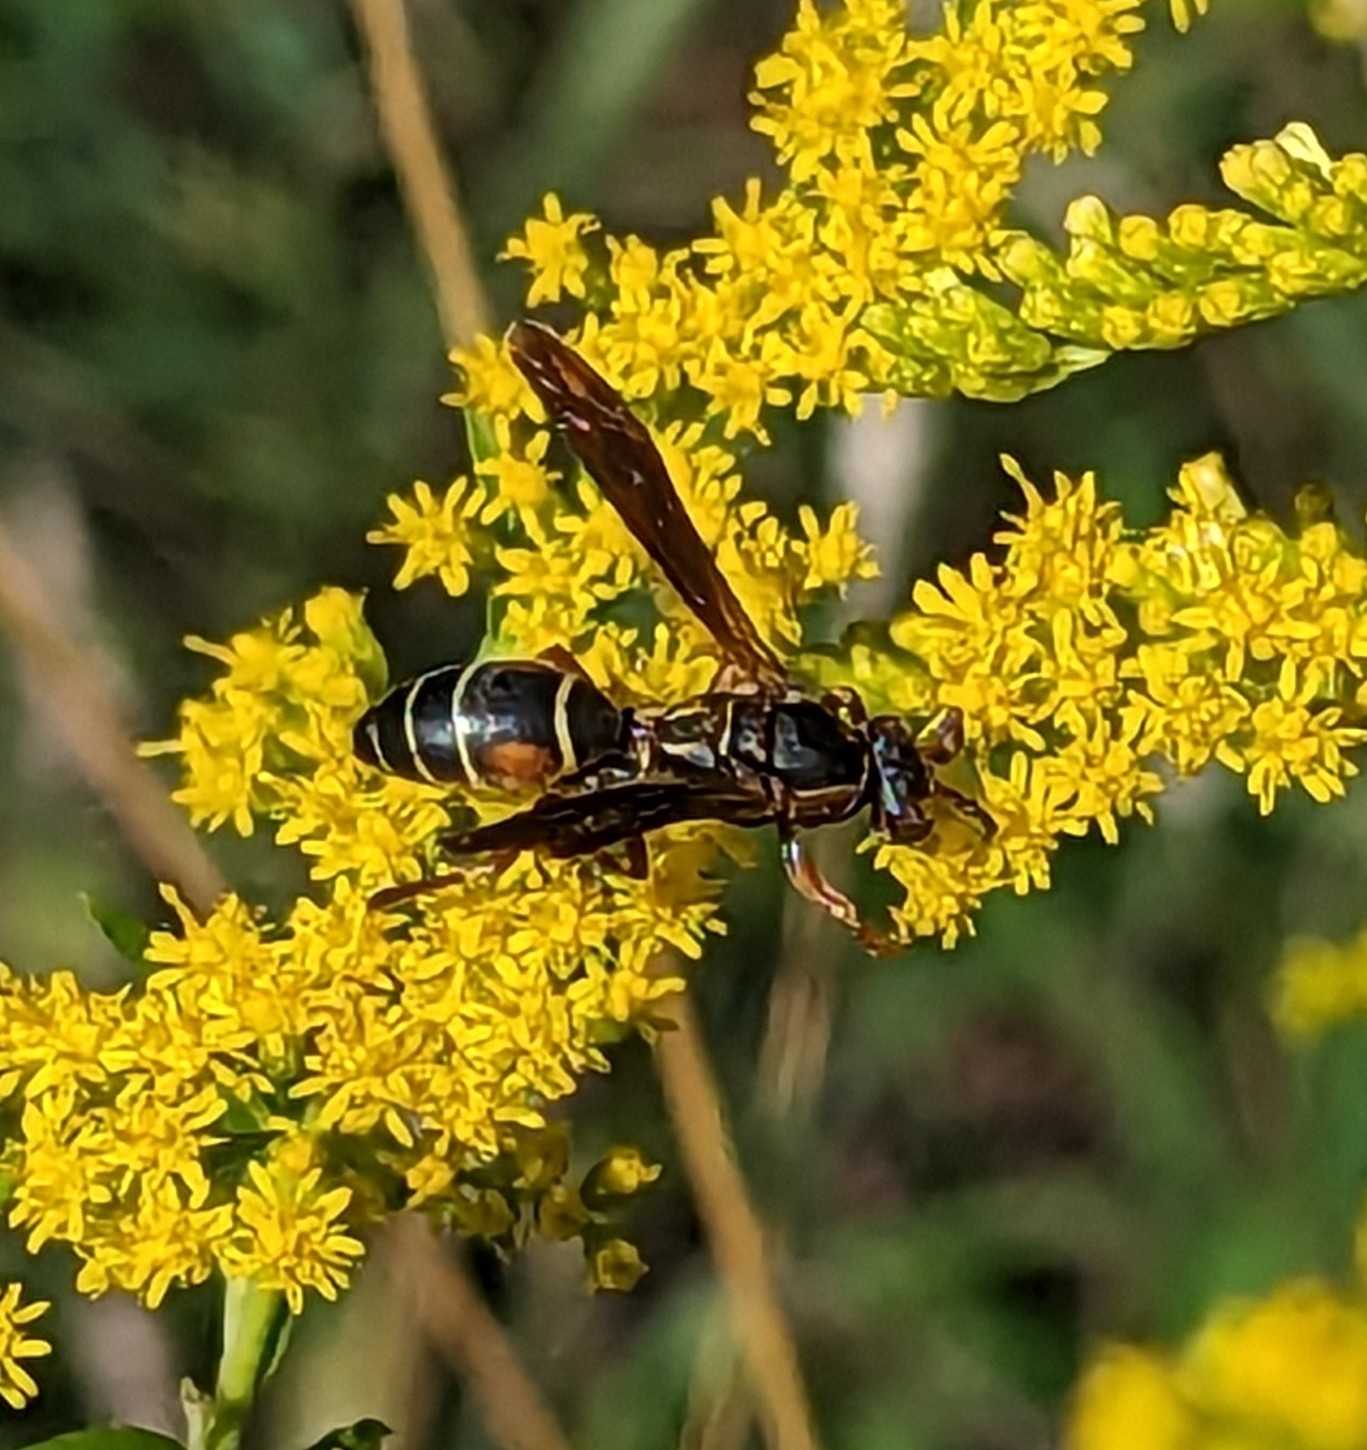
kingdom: Animalia
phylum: Arthropoda
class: Insecta
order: Hymenoptera
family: Eumenidae
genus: Polistes
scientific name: Polistes fuscatus
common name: Dark paper wasp
